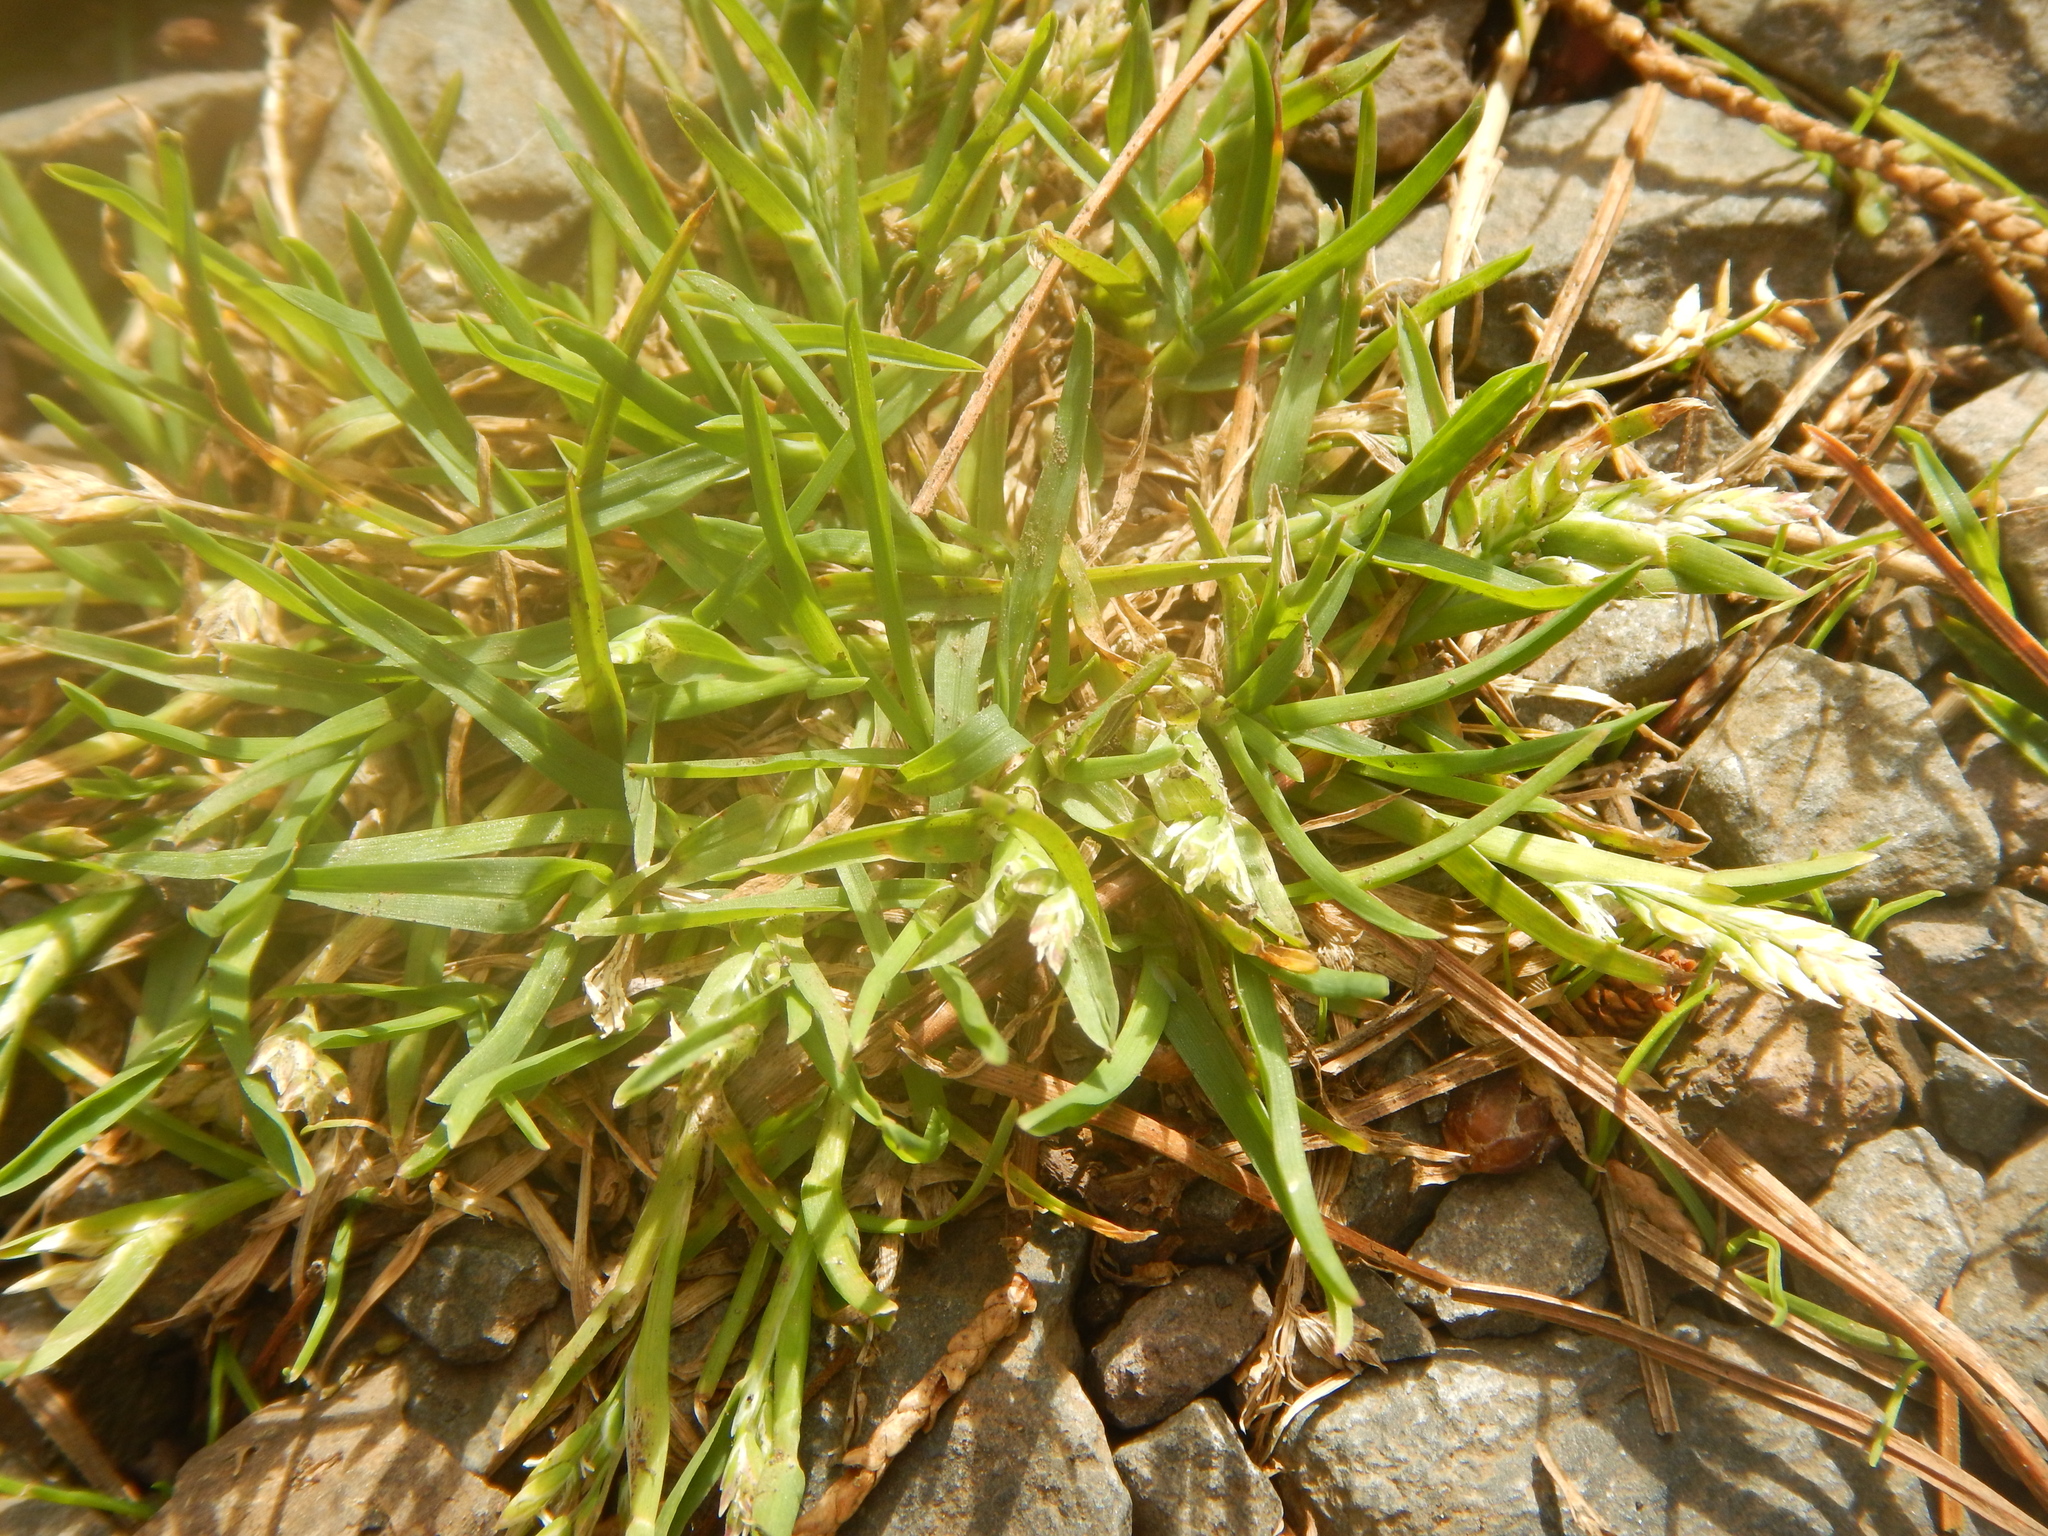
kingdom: Plantae
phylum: Tracheophyta
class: Liliopsida
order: Poales
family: Poaceae
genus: Poa
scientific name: Poa annua
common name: Annual bluegrass
